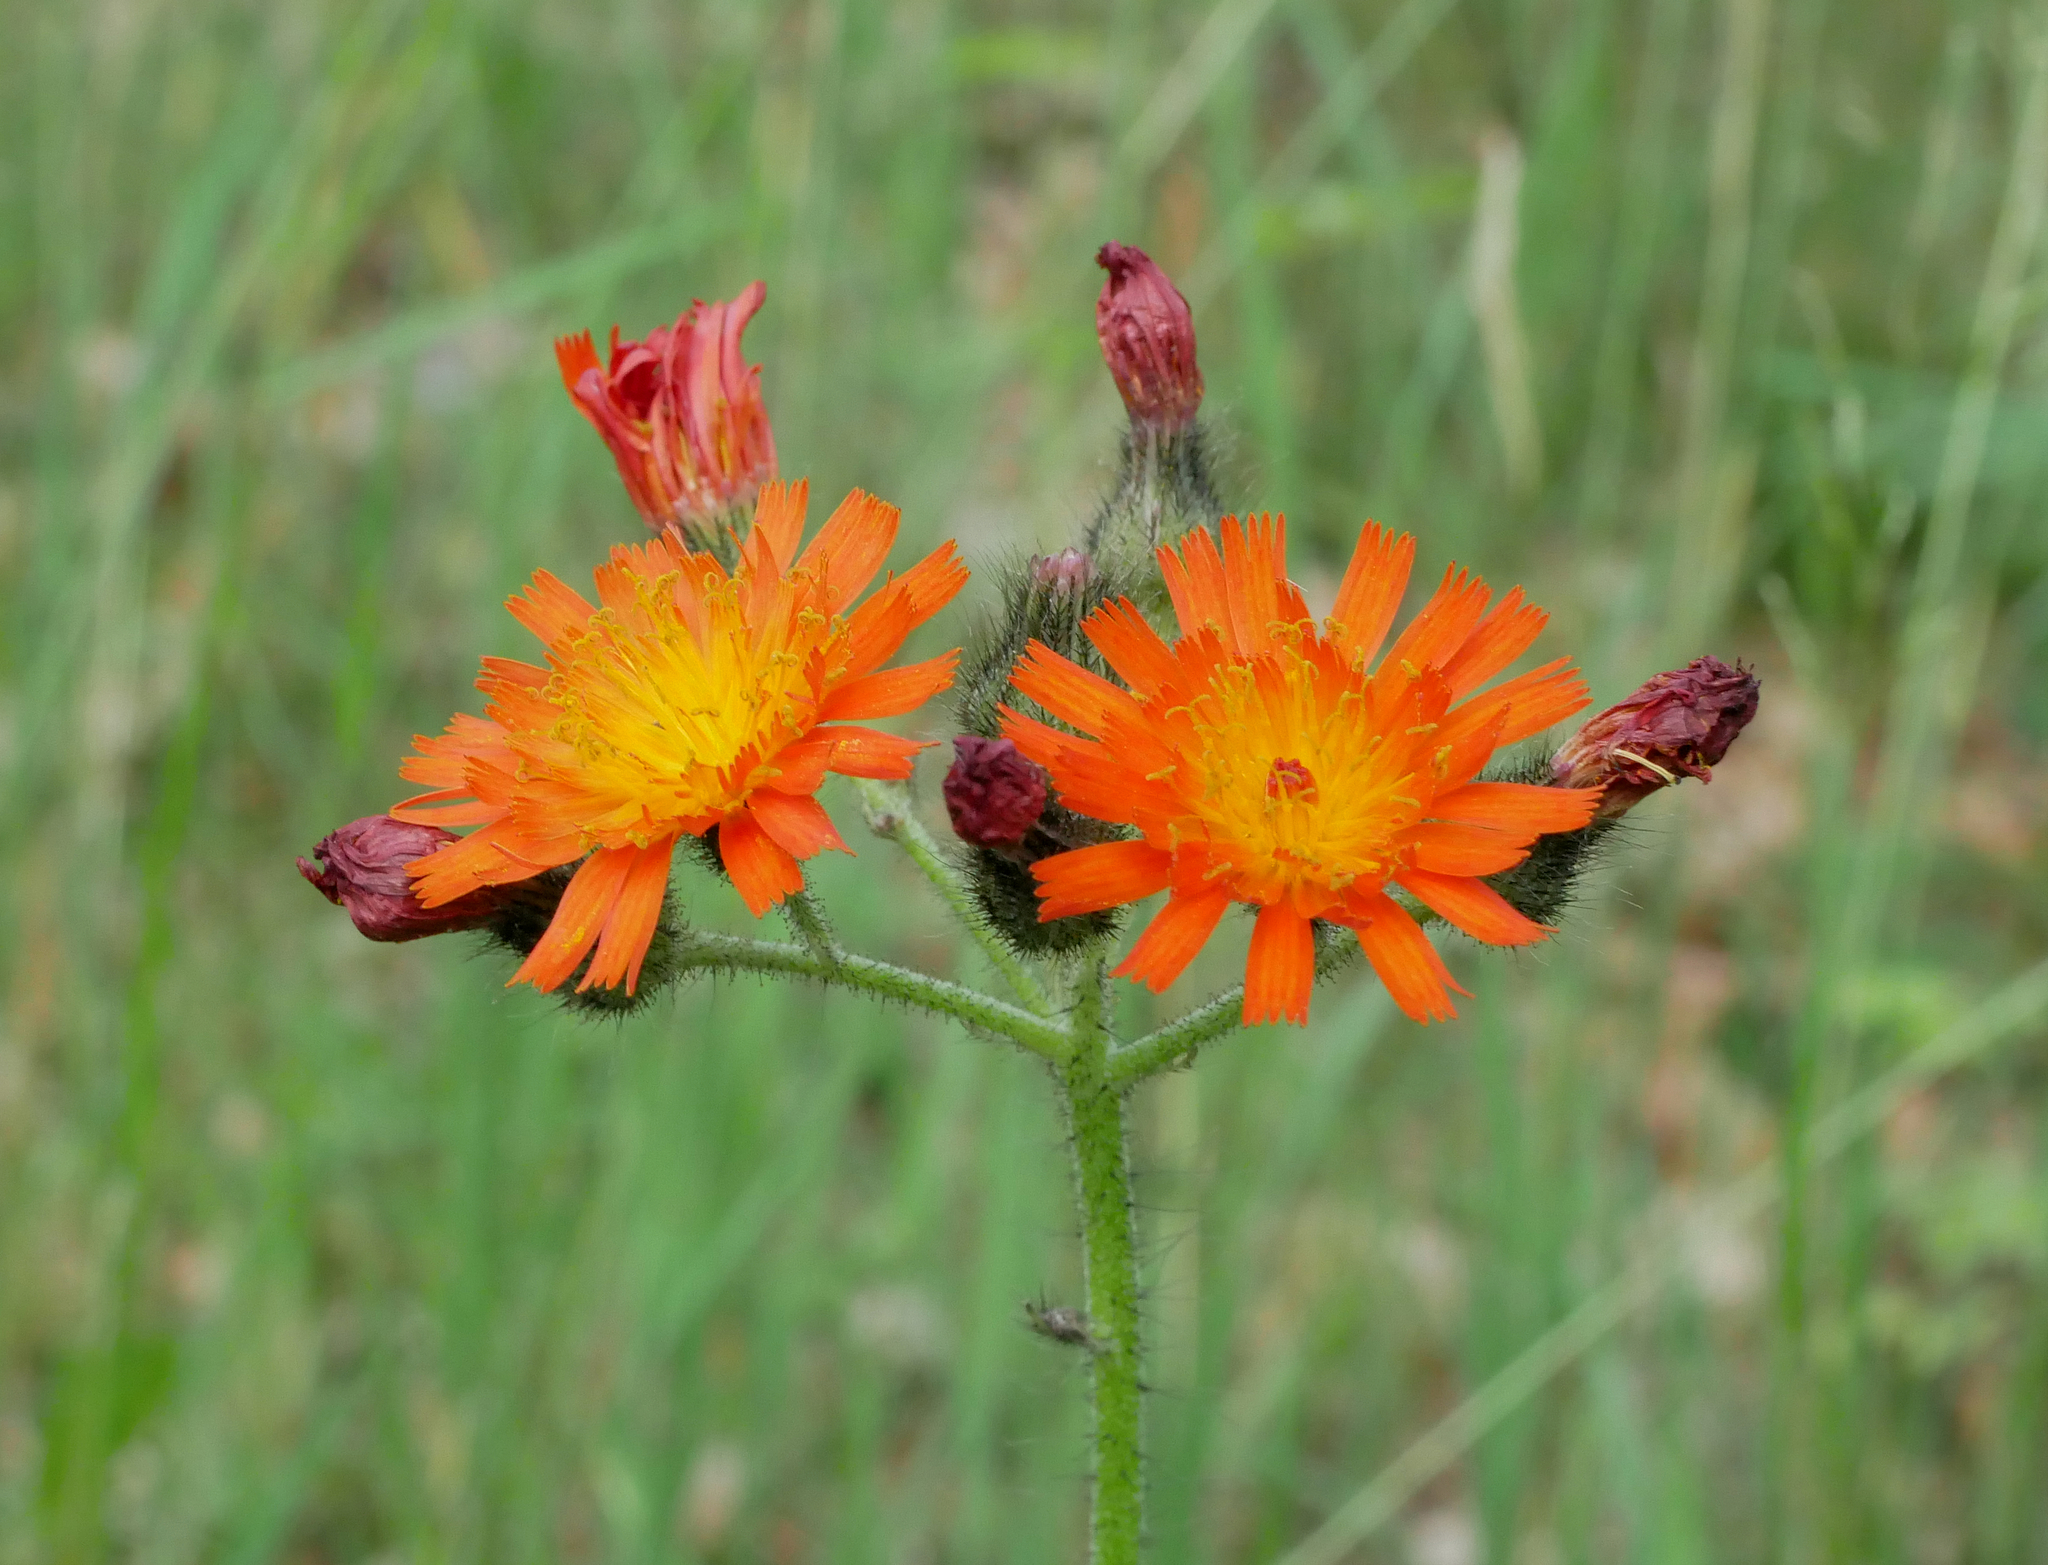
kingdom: Plantae
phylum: Tracheophyta
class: Magnoliopsida
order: Asterales
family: Asteraceae
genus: Pilosella
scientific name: Pilosella aurantiaca
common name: Fox-and-cubs
